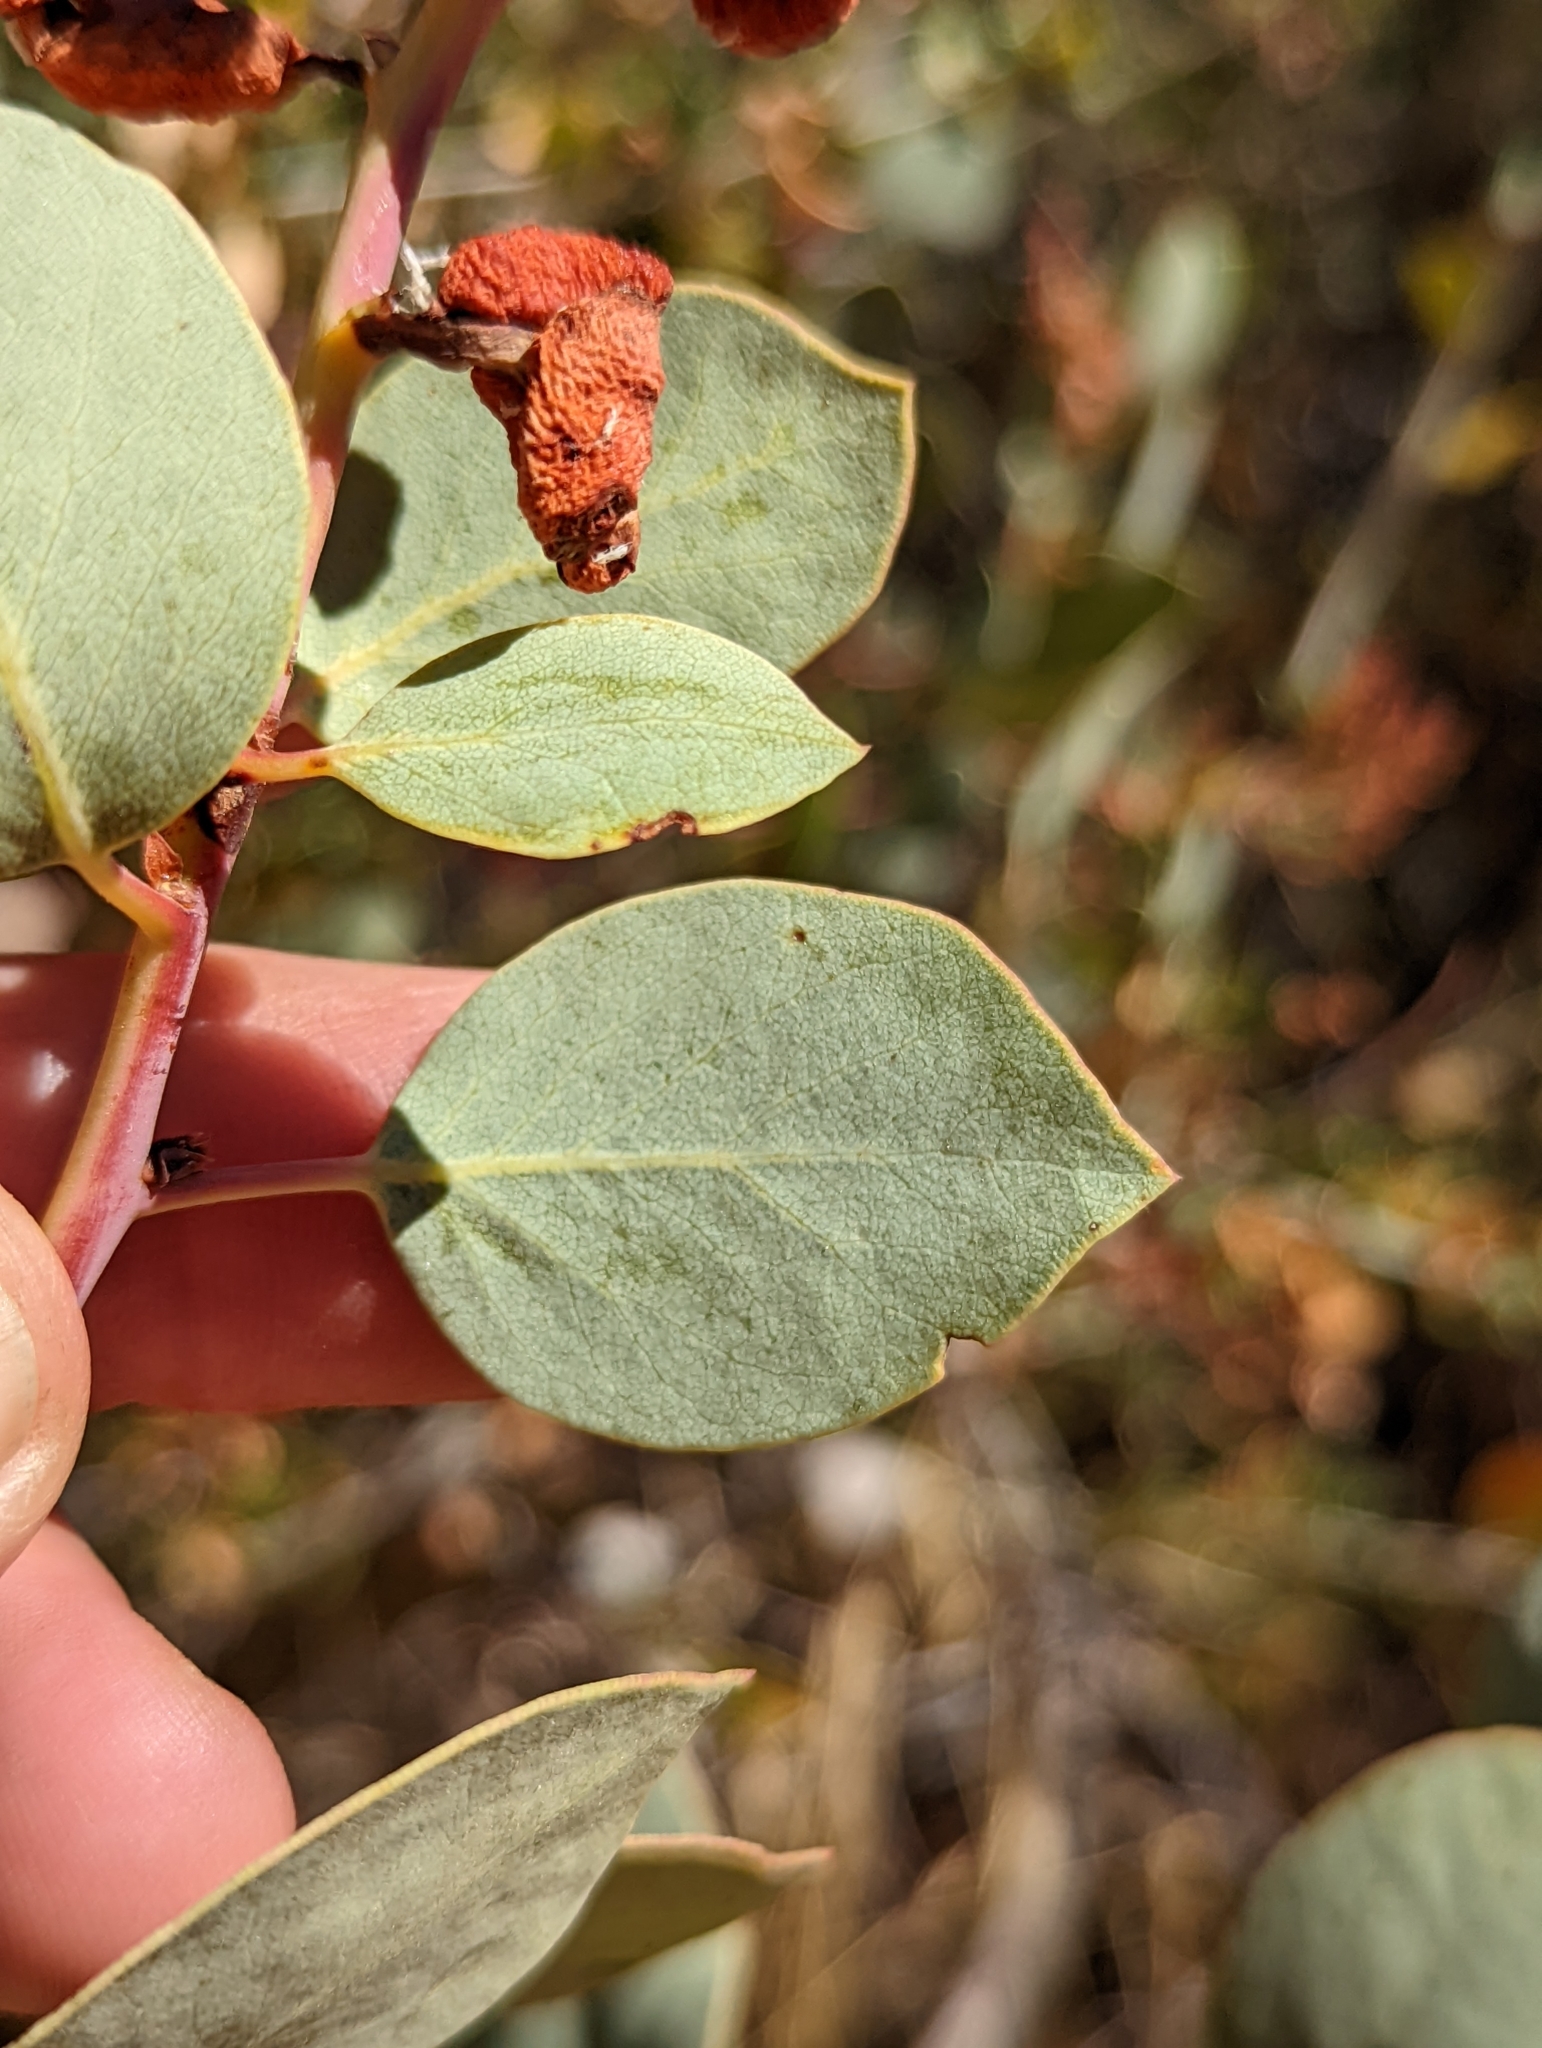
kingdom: Plantae
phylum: Tracheophyta
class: Magnoliopsida
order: Ericales
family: Ericaceae
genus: Arctostaphylos
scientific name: Arctostaphylos viscida
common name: White-leaf manzanita
